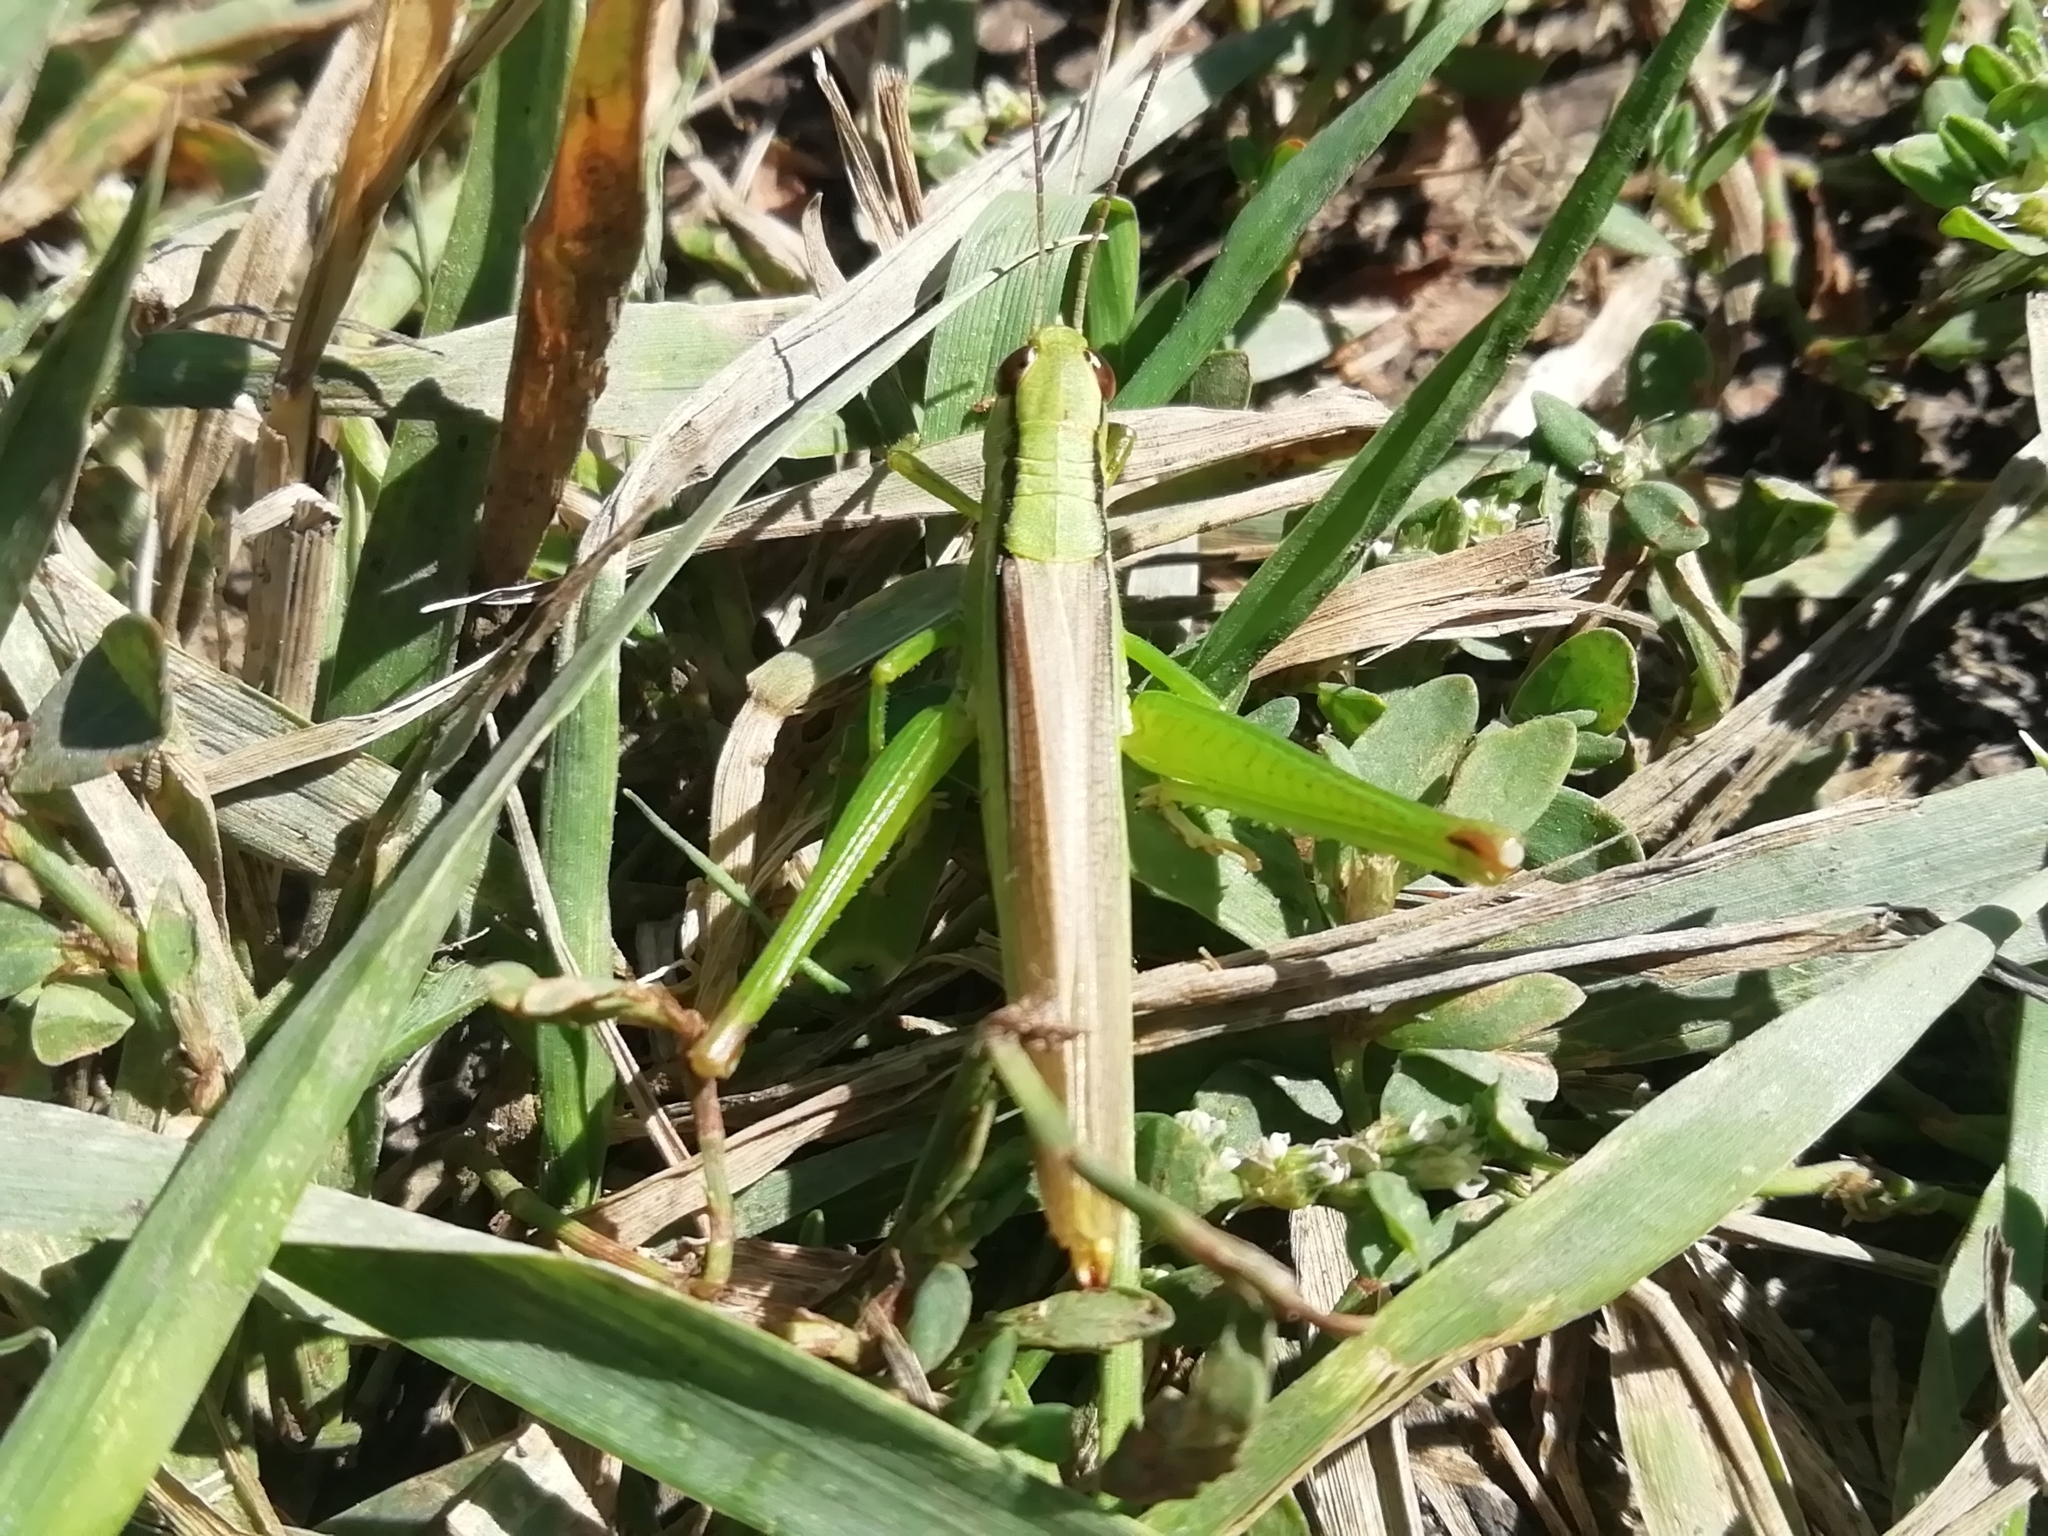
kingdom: Animalia
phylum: Arthropoda
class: Insecta
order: Orthoptera
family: Acrididae
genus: Mecostethus
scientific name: Mecostethus parapleurus
